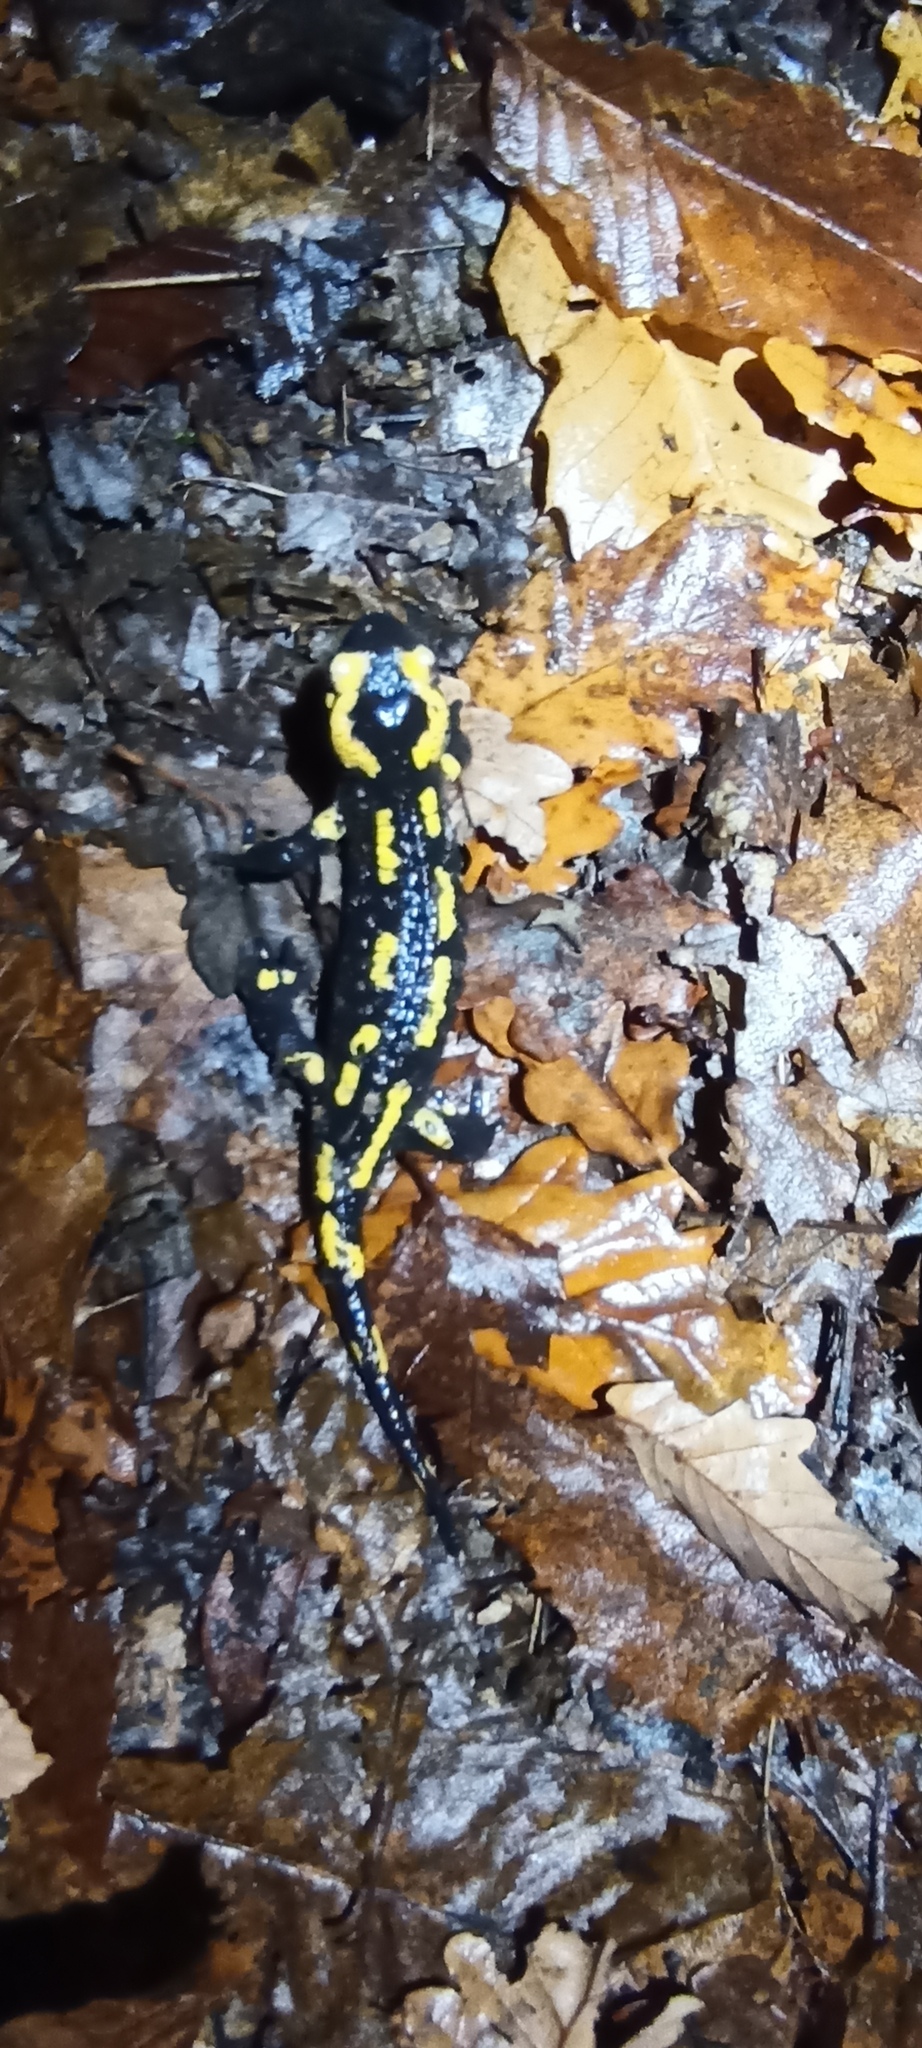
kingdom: Animalia
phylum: Chordata
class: Amphibia
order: Caudata
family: Salamandridae
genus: Salamandra
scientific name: Salamandra salamandra
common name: Fire salamander
